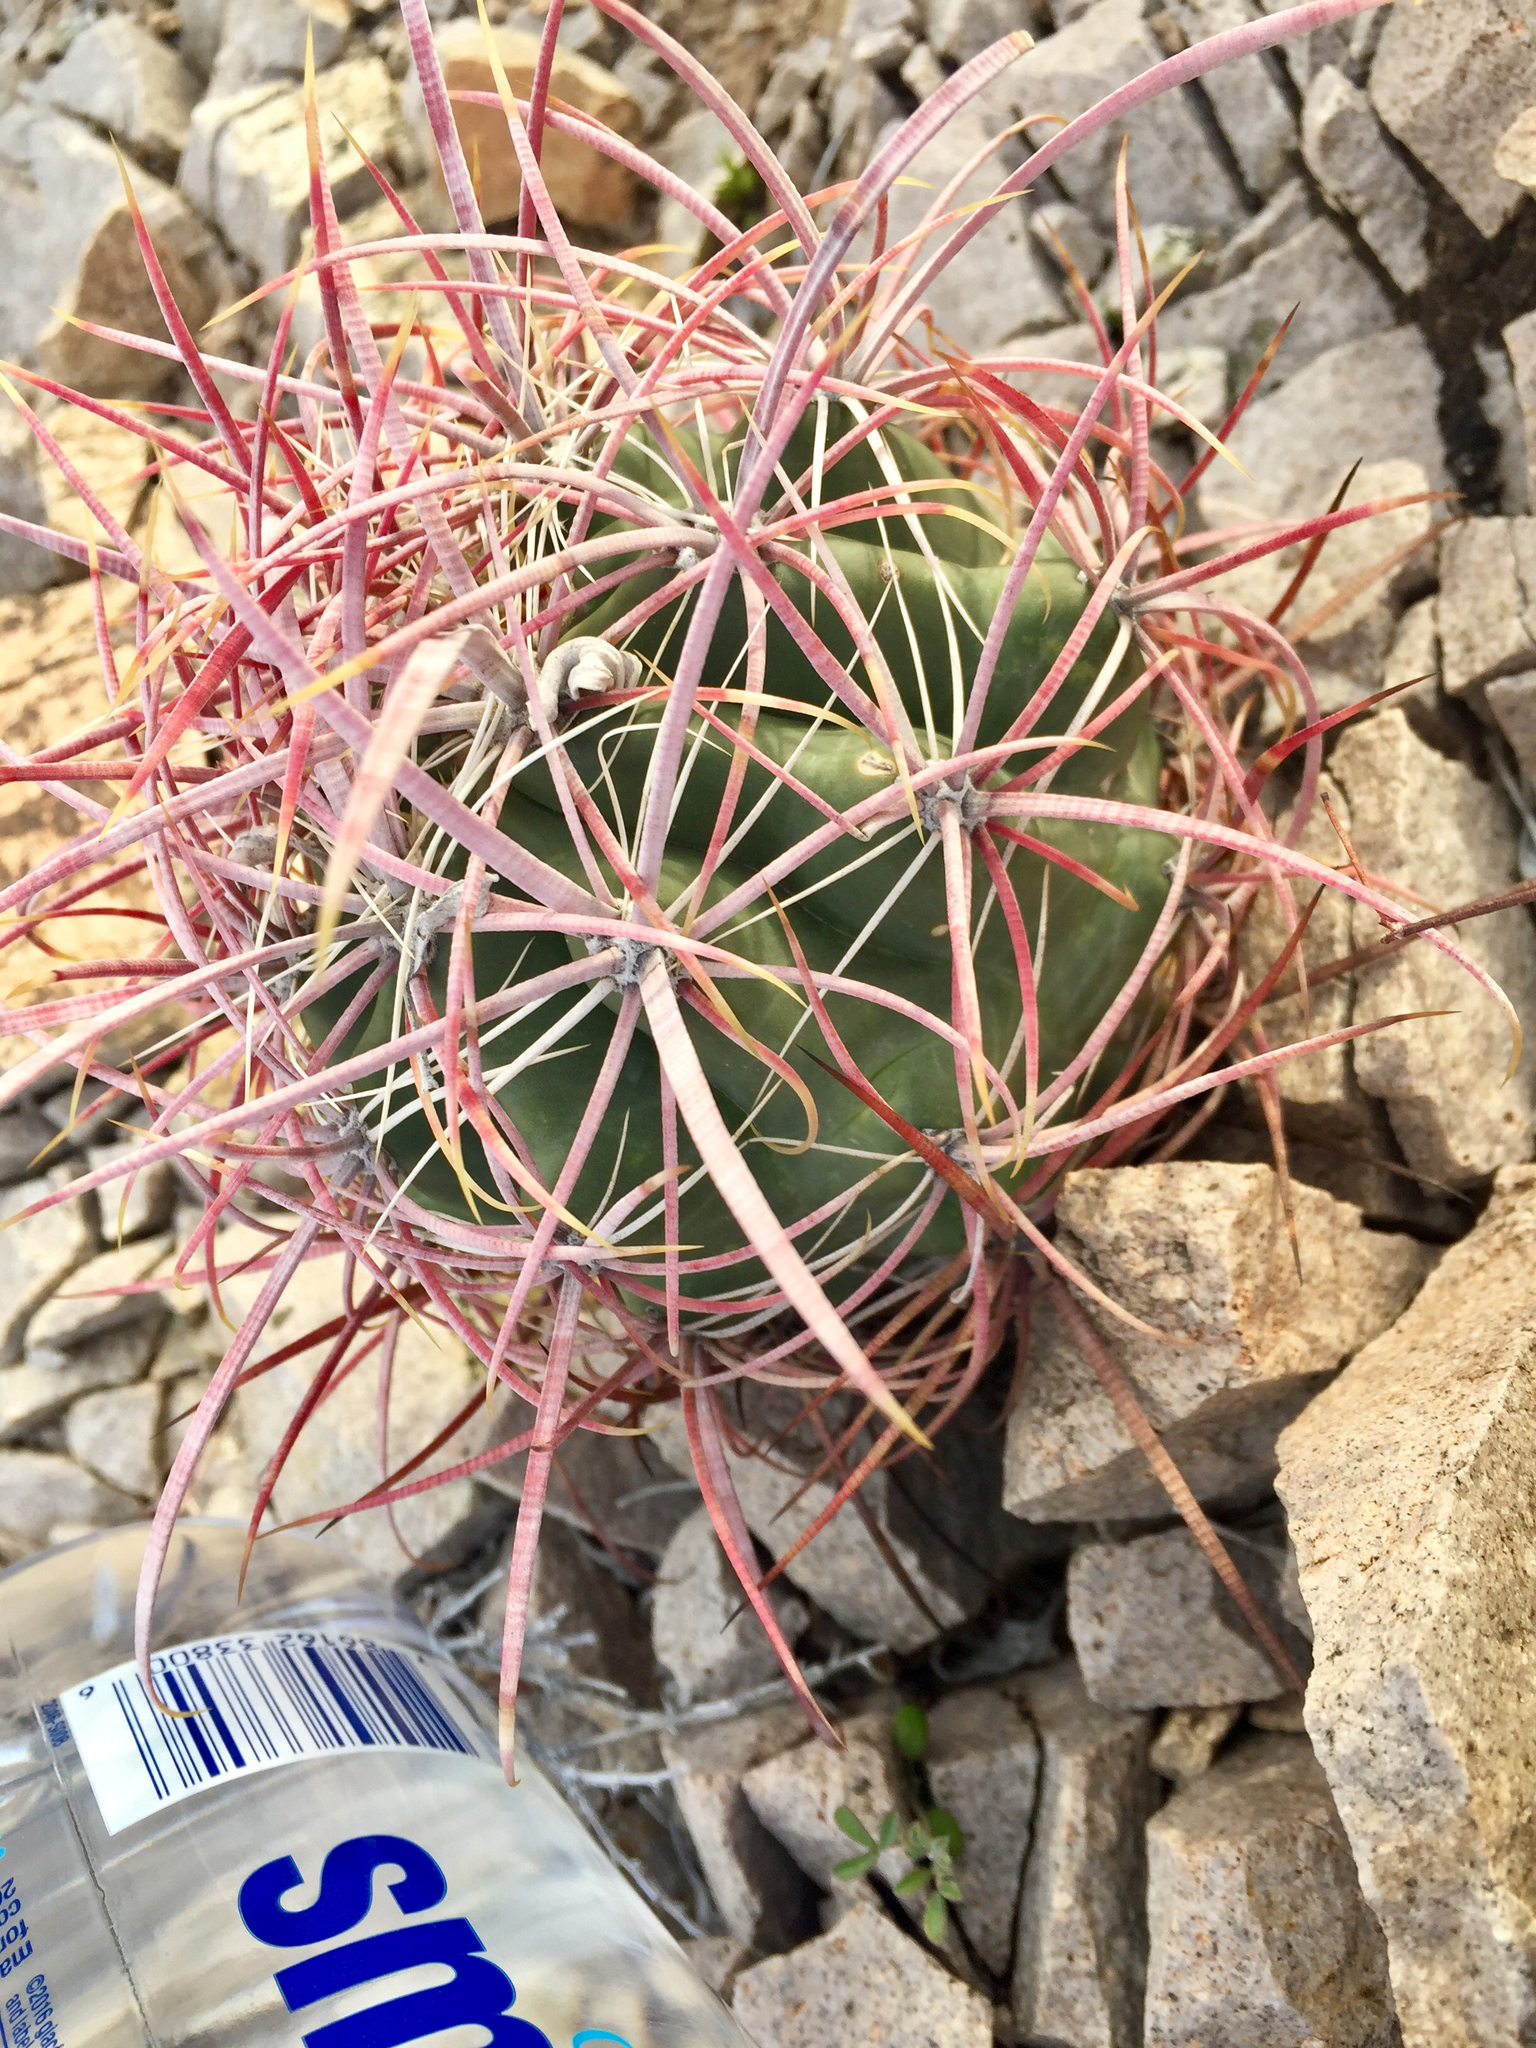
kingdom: Plantae
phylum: Tracheophyta
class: Magnoliopsida
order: Caryophyllales
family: Cactaceae
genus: Ferocactus
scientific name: Ferocactus cylindraceus
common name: California barrel cactus
